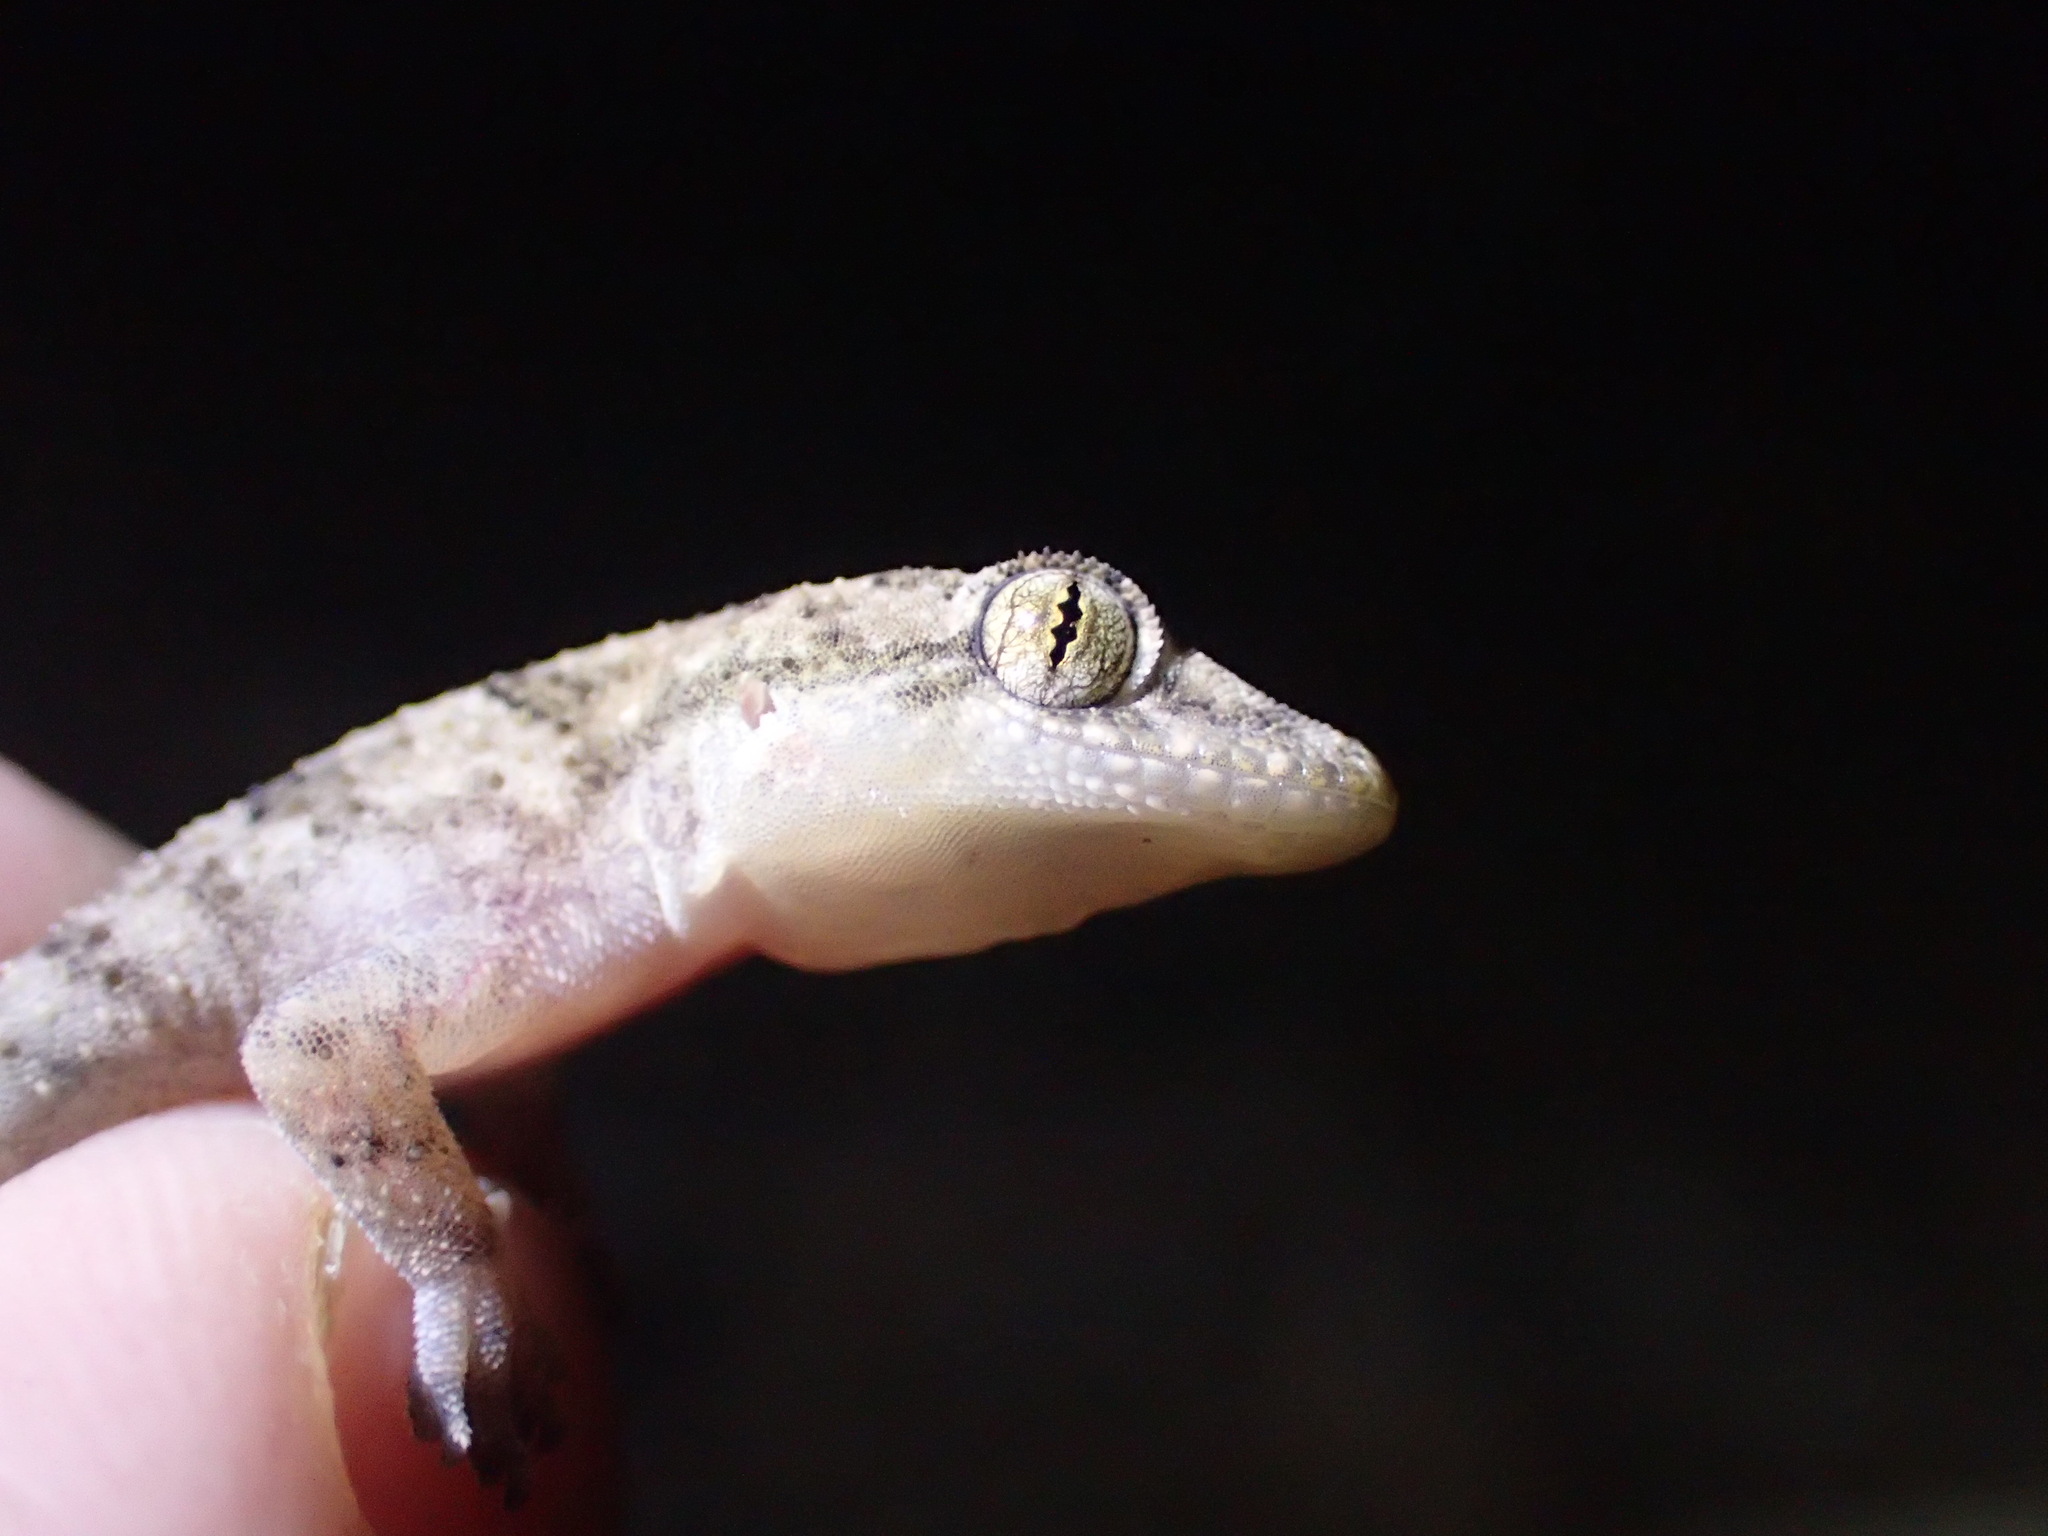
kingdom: Animalia
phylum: Chordata
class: Squamata
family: Gekkonidae
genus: Hemidactylus
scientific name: Hemidactylus mabouia
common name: House gecko
